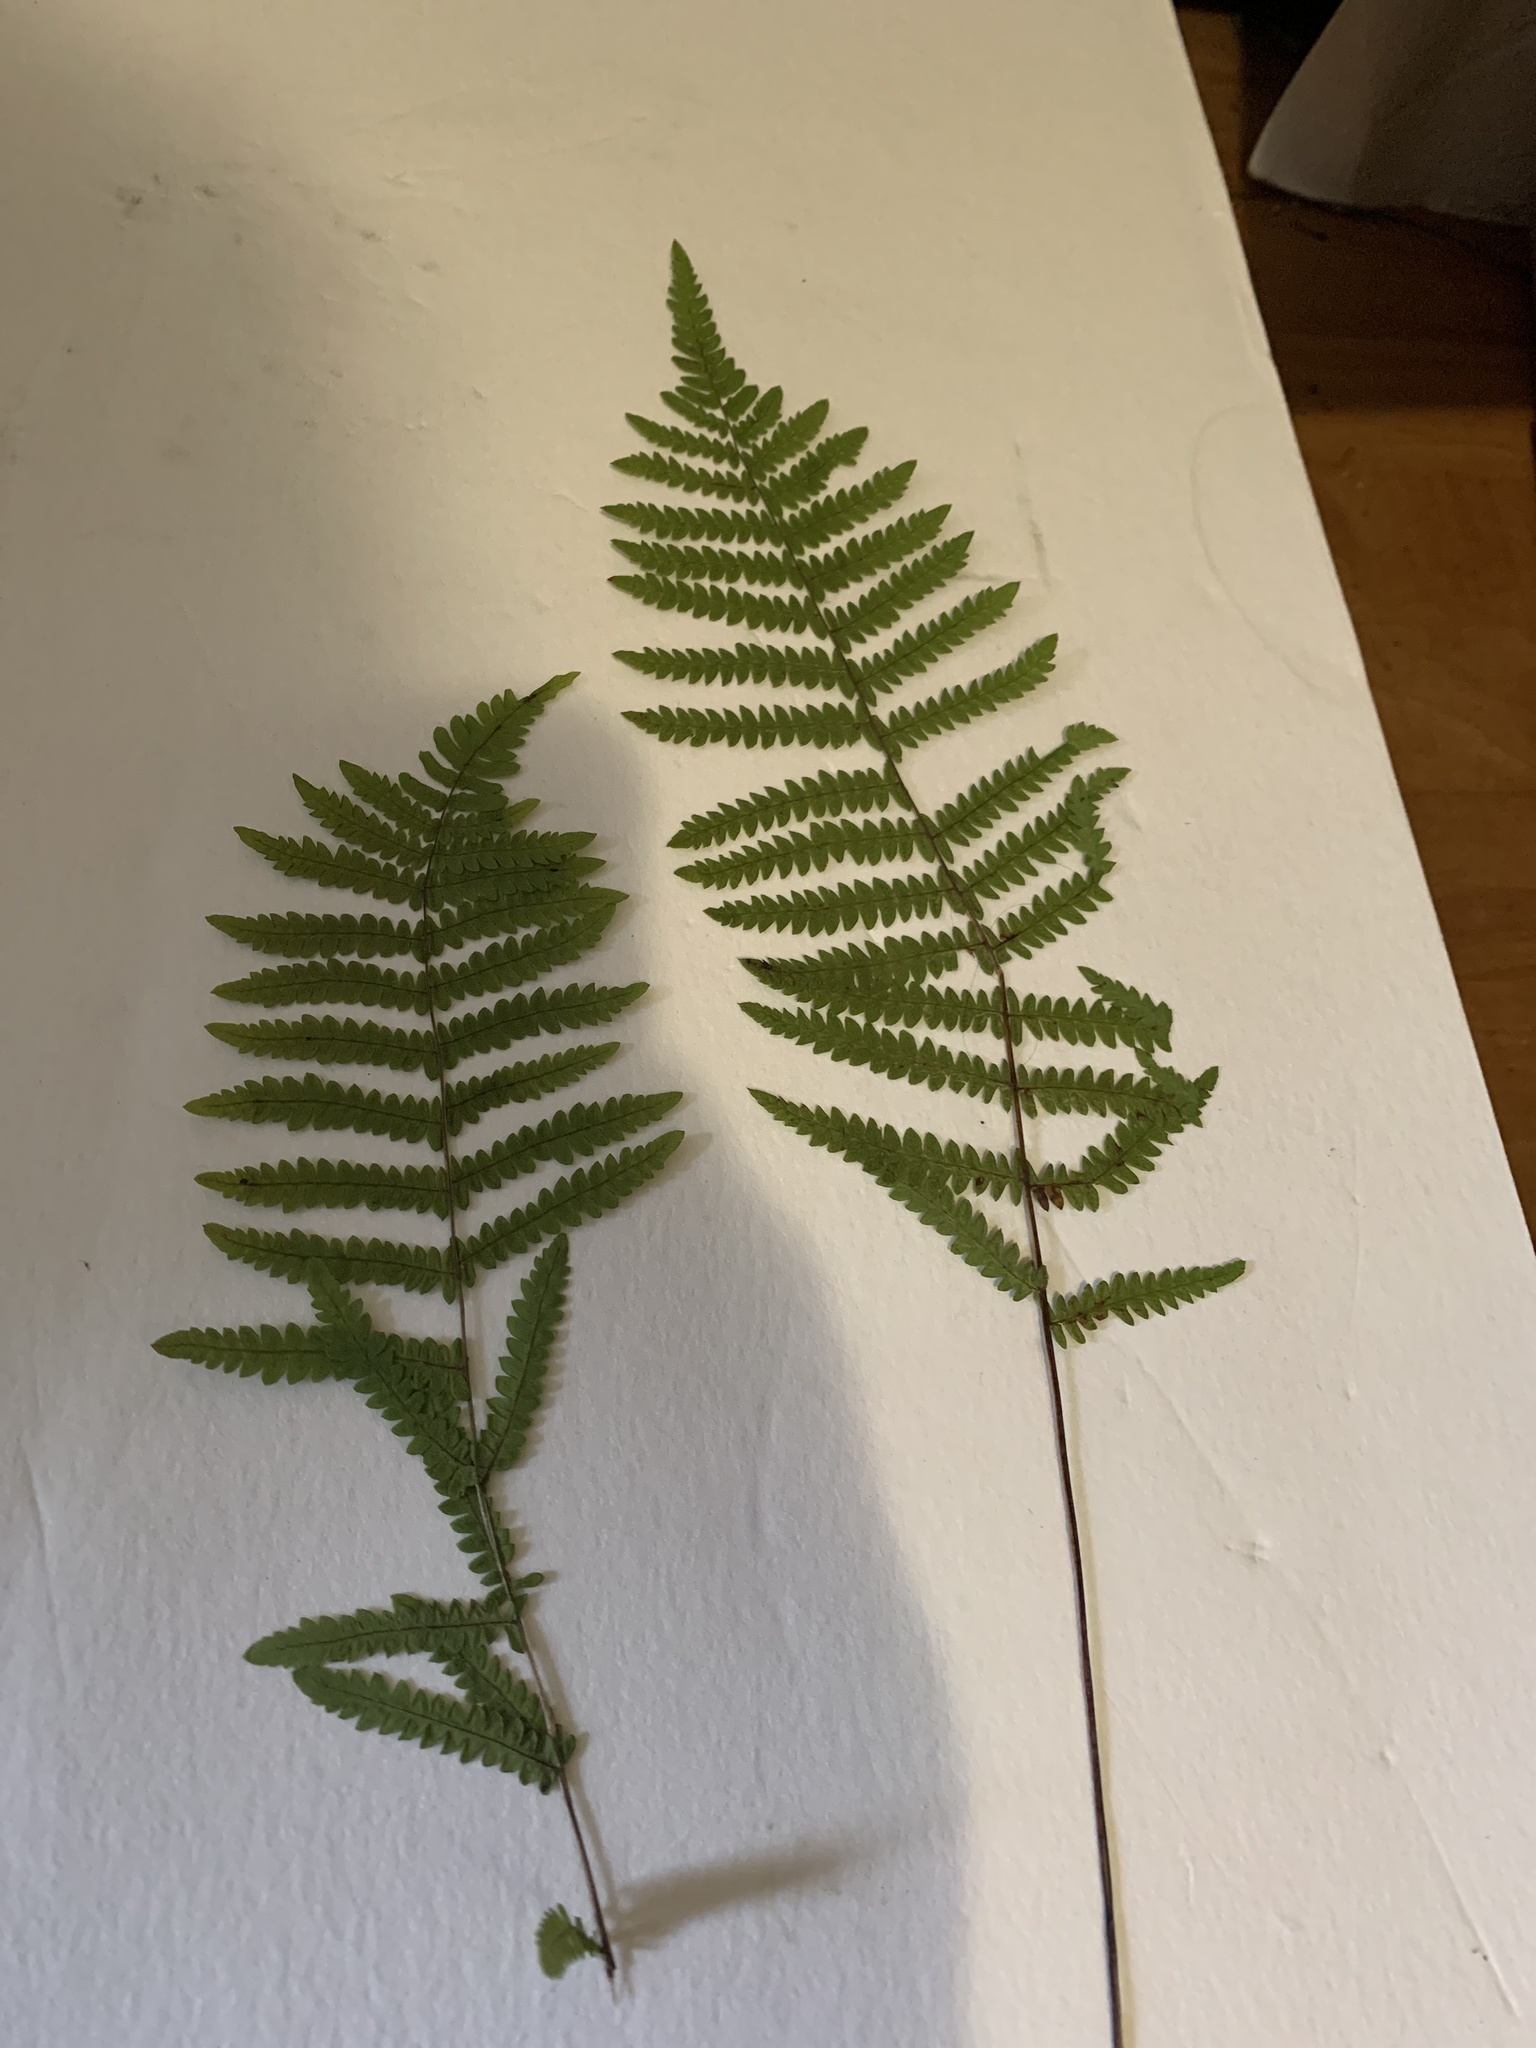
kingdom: Plantae
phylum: Tracheophyta
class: Polypodiopsida
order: Polypodiales
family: Thelypteridaceae
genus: Thelypteris
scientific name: Thelypteris palustris
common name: Marsh fern
